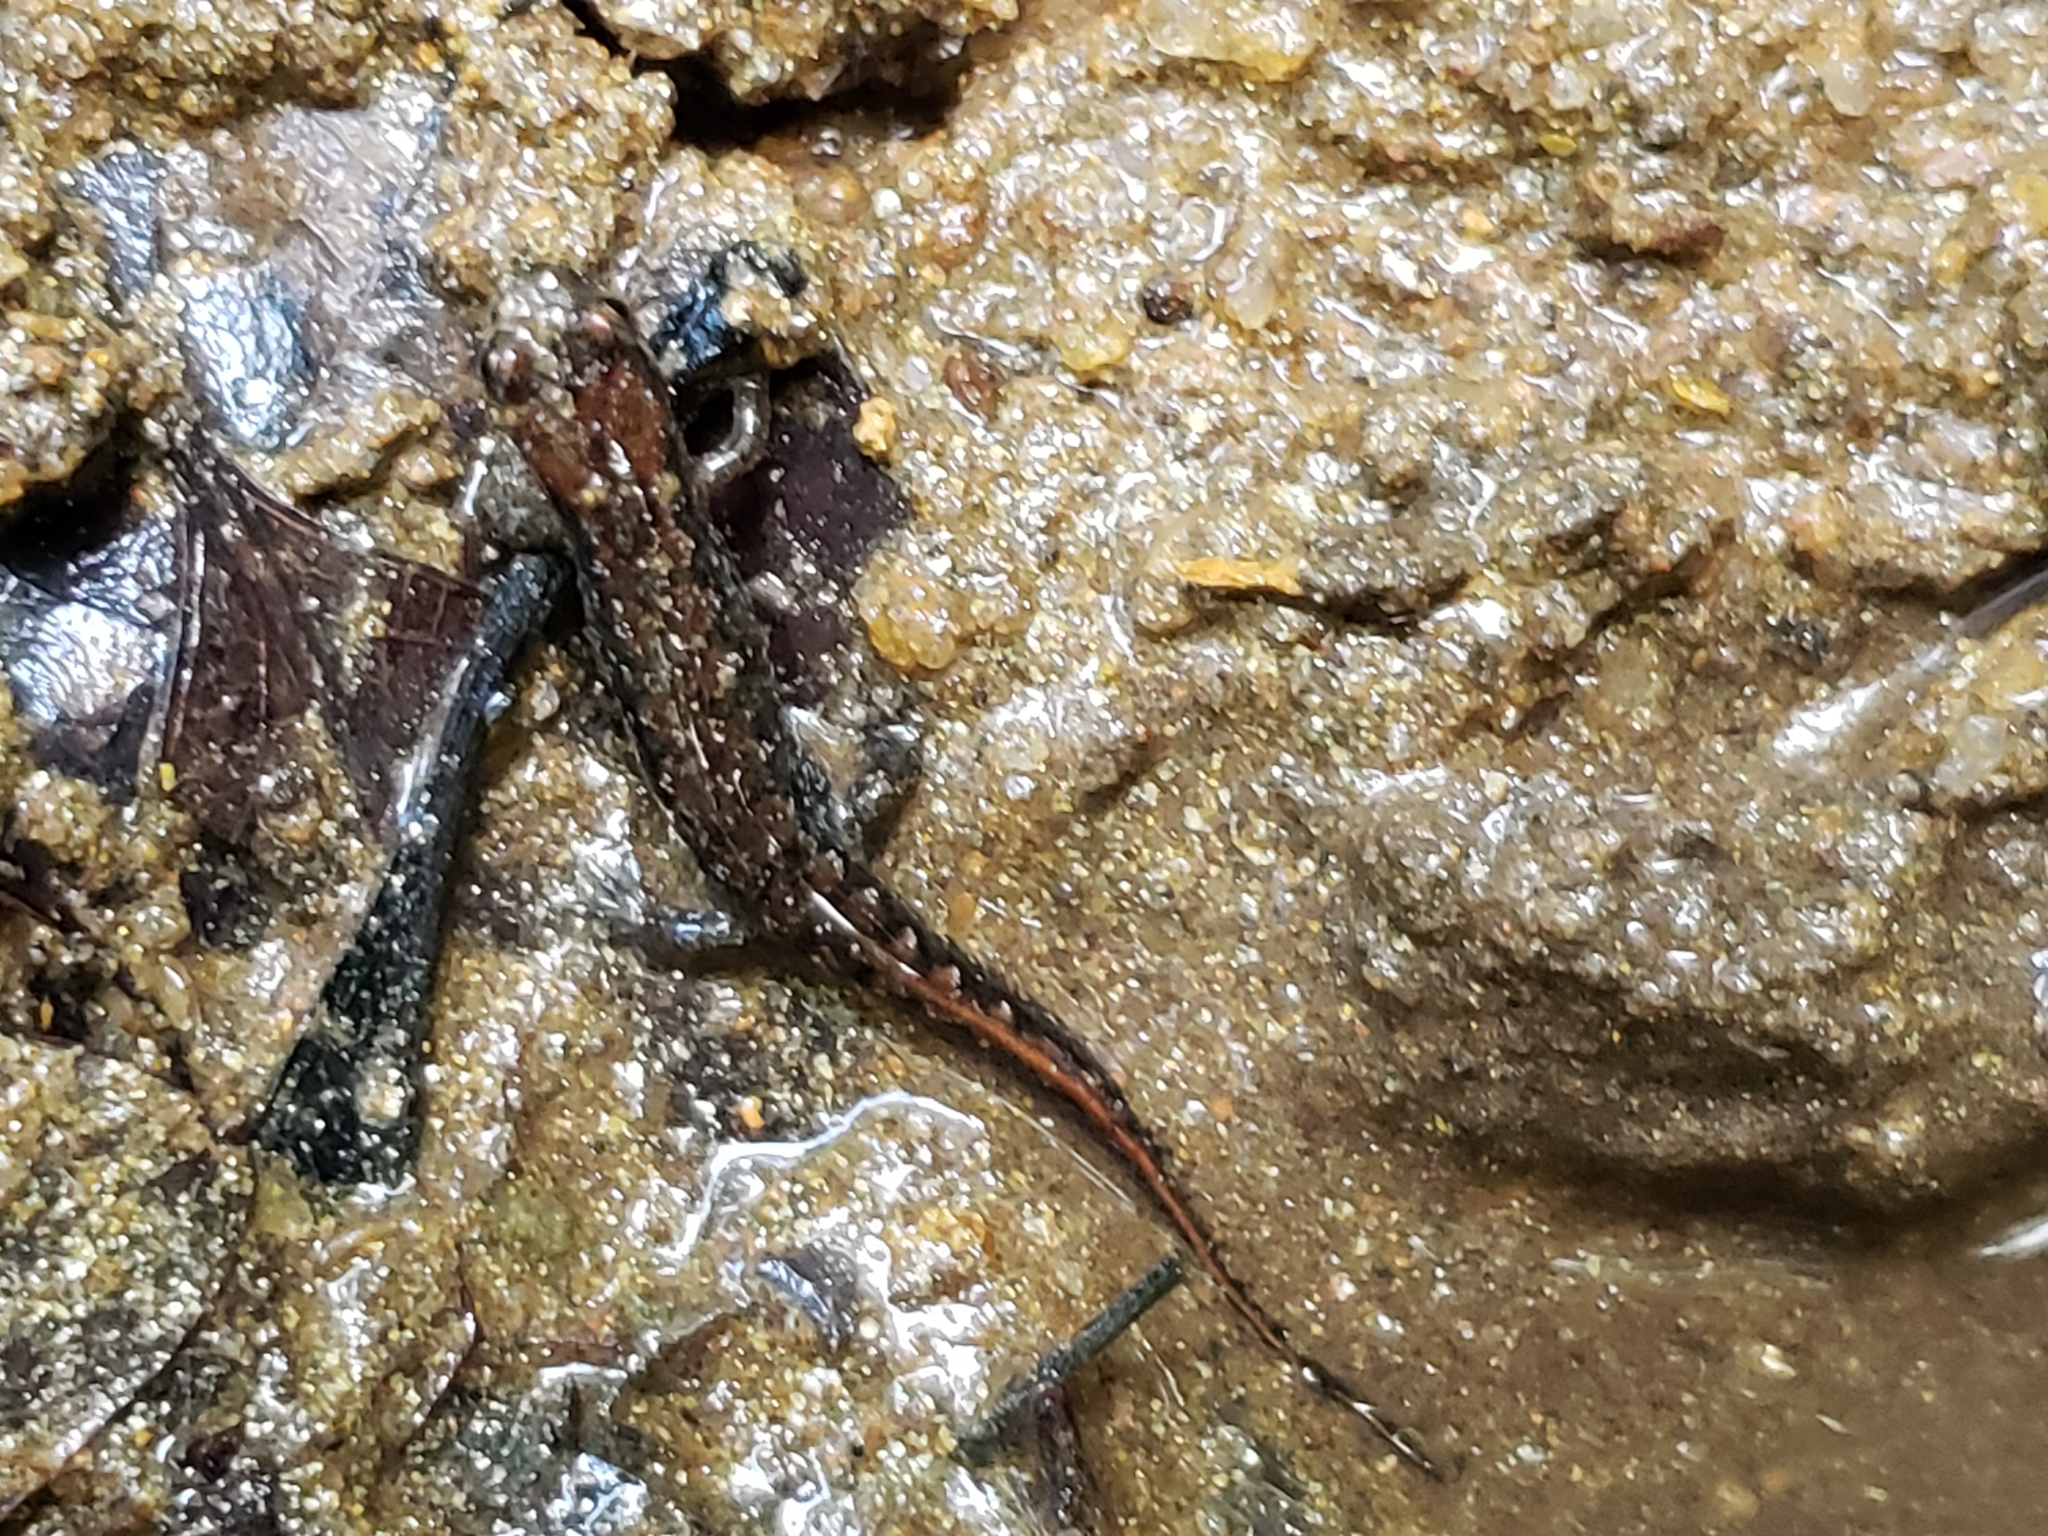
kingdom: Animalia
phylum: Chordata
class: Amphibia
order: Caudata
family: Plethodontidae
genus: Desmognathus
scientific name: Desmognathus
